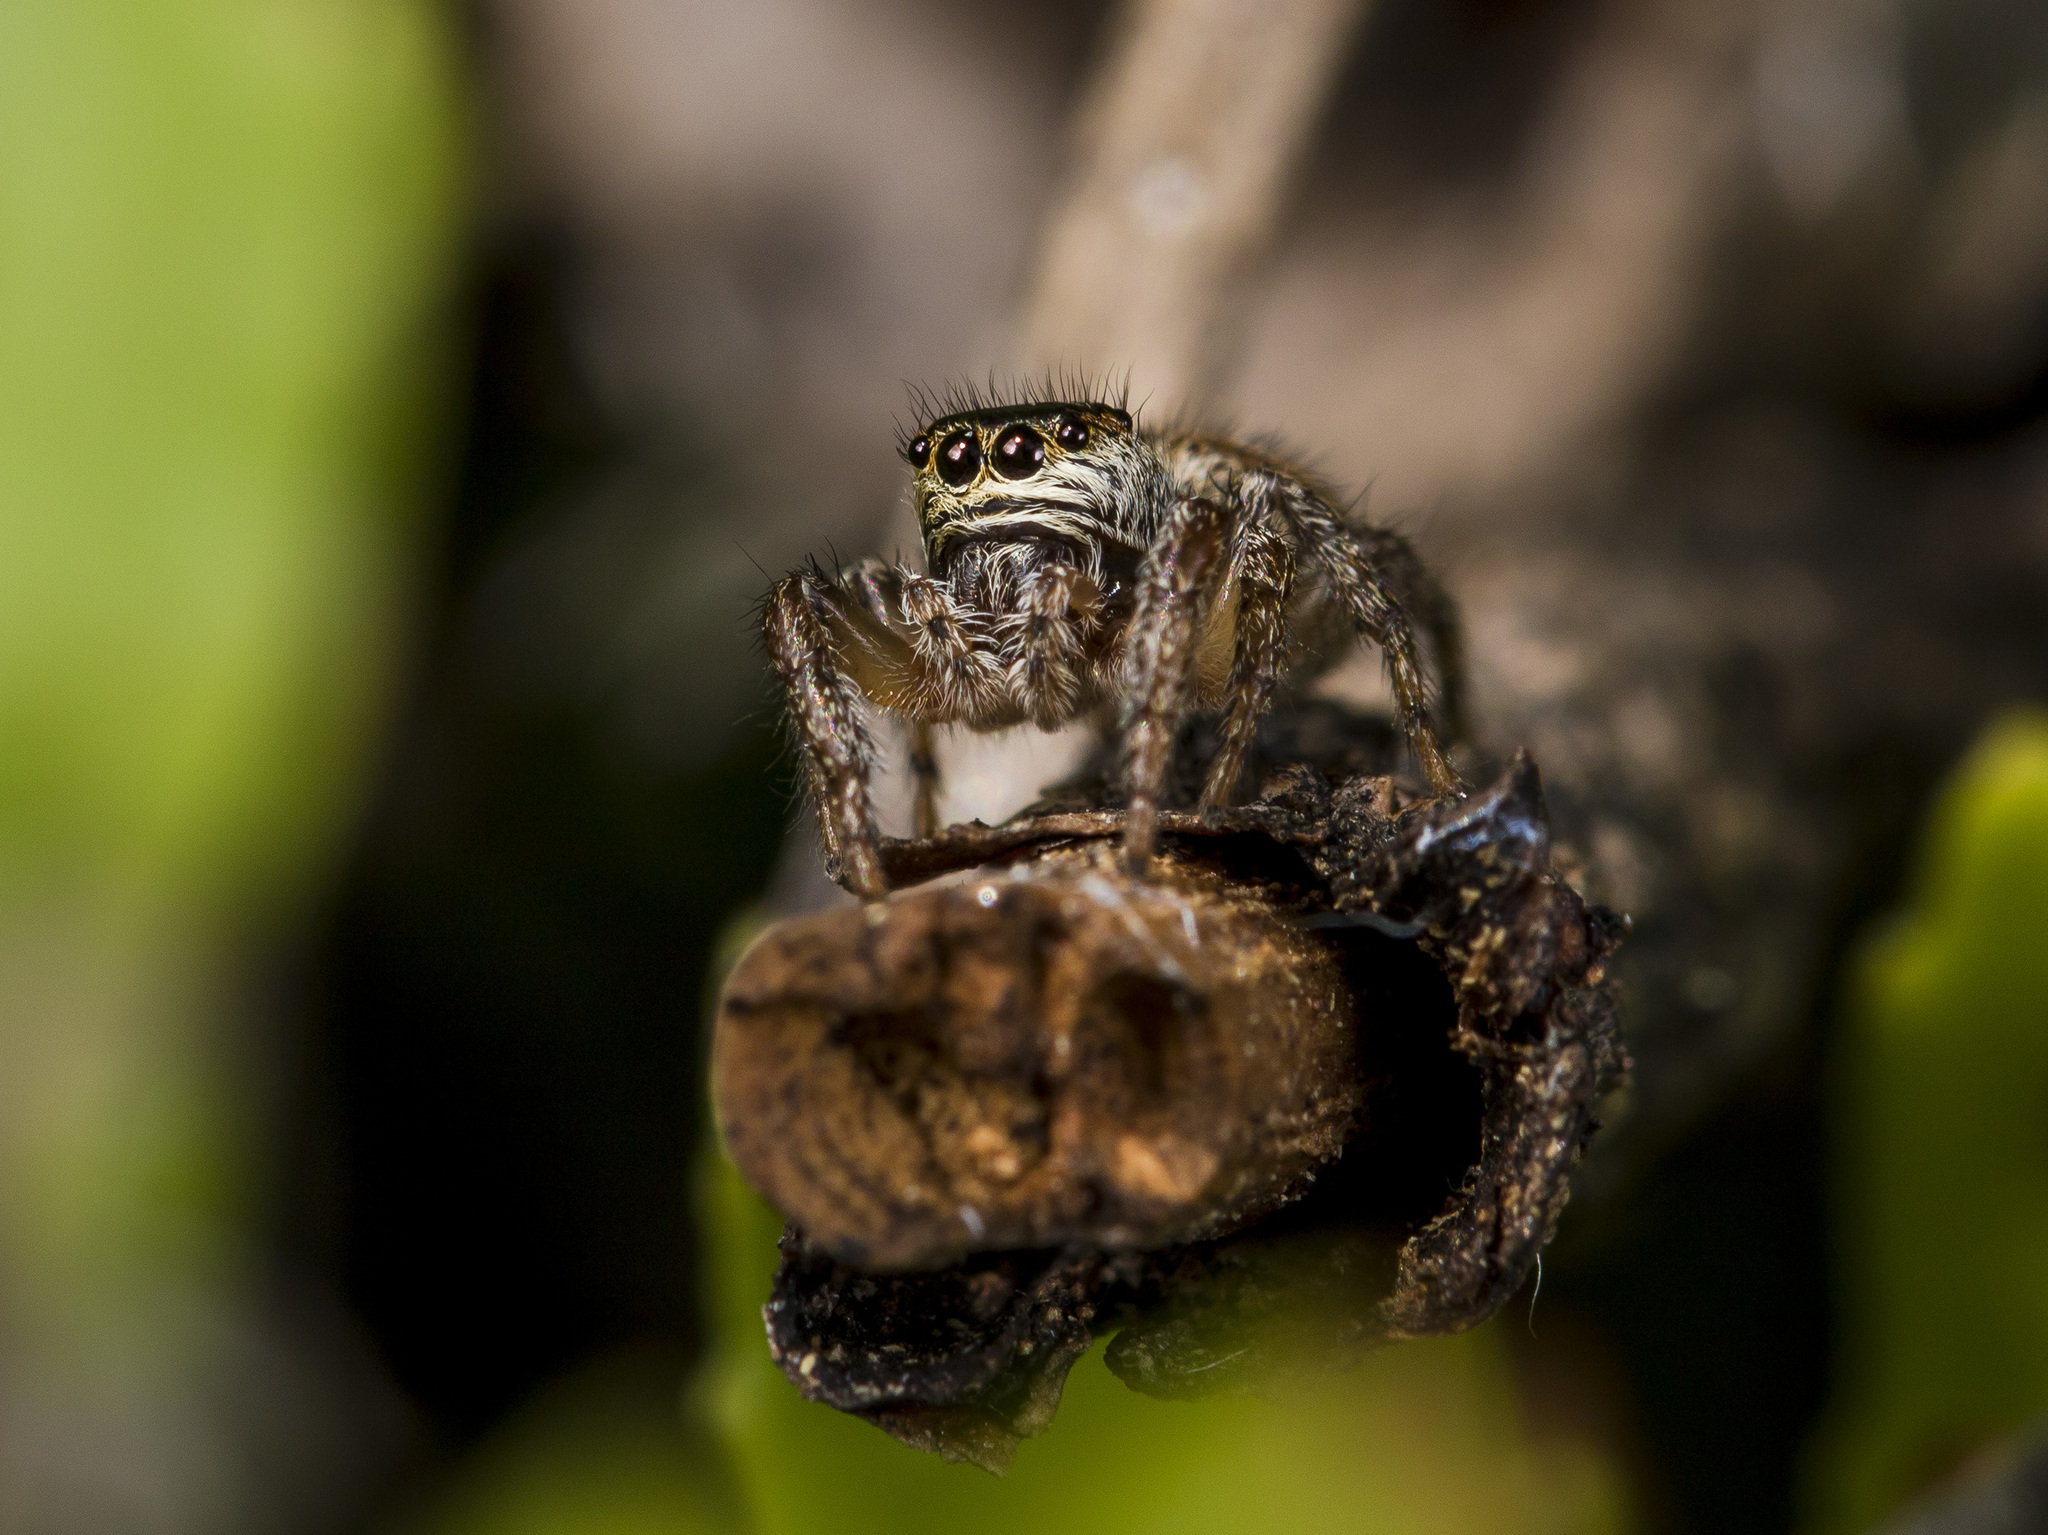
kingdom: Animalia
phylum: Arthropoda
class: Arachnida
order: Araneae
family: Salticidae
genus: Evarcha
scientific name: Evarcha arcuata
